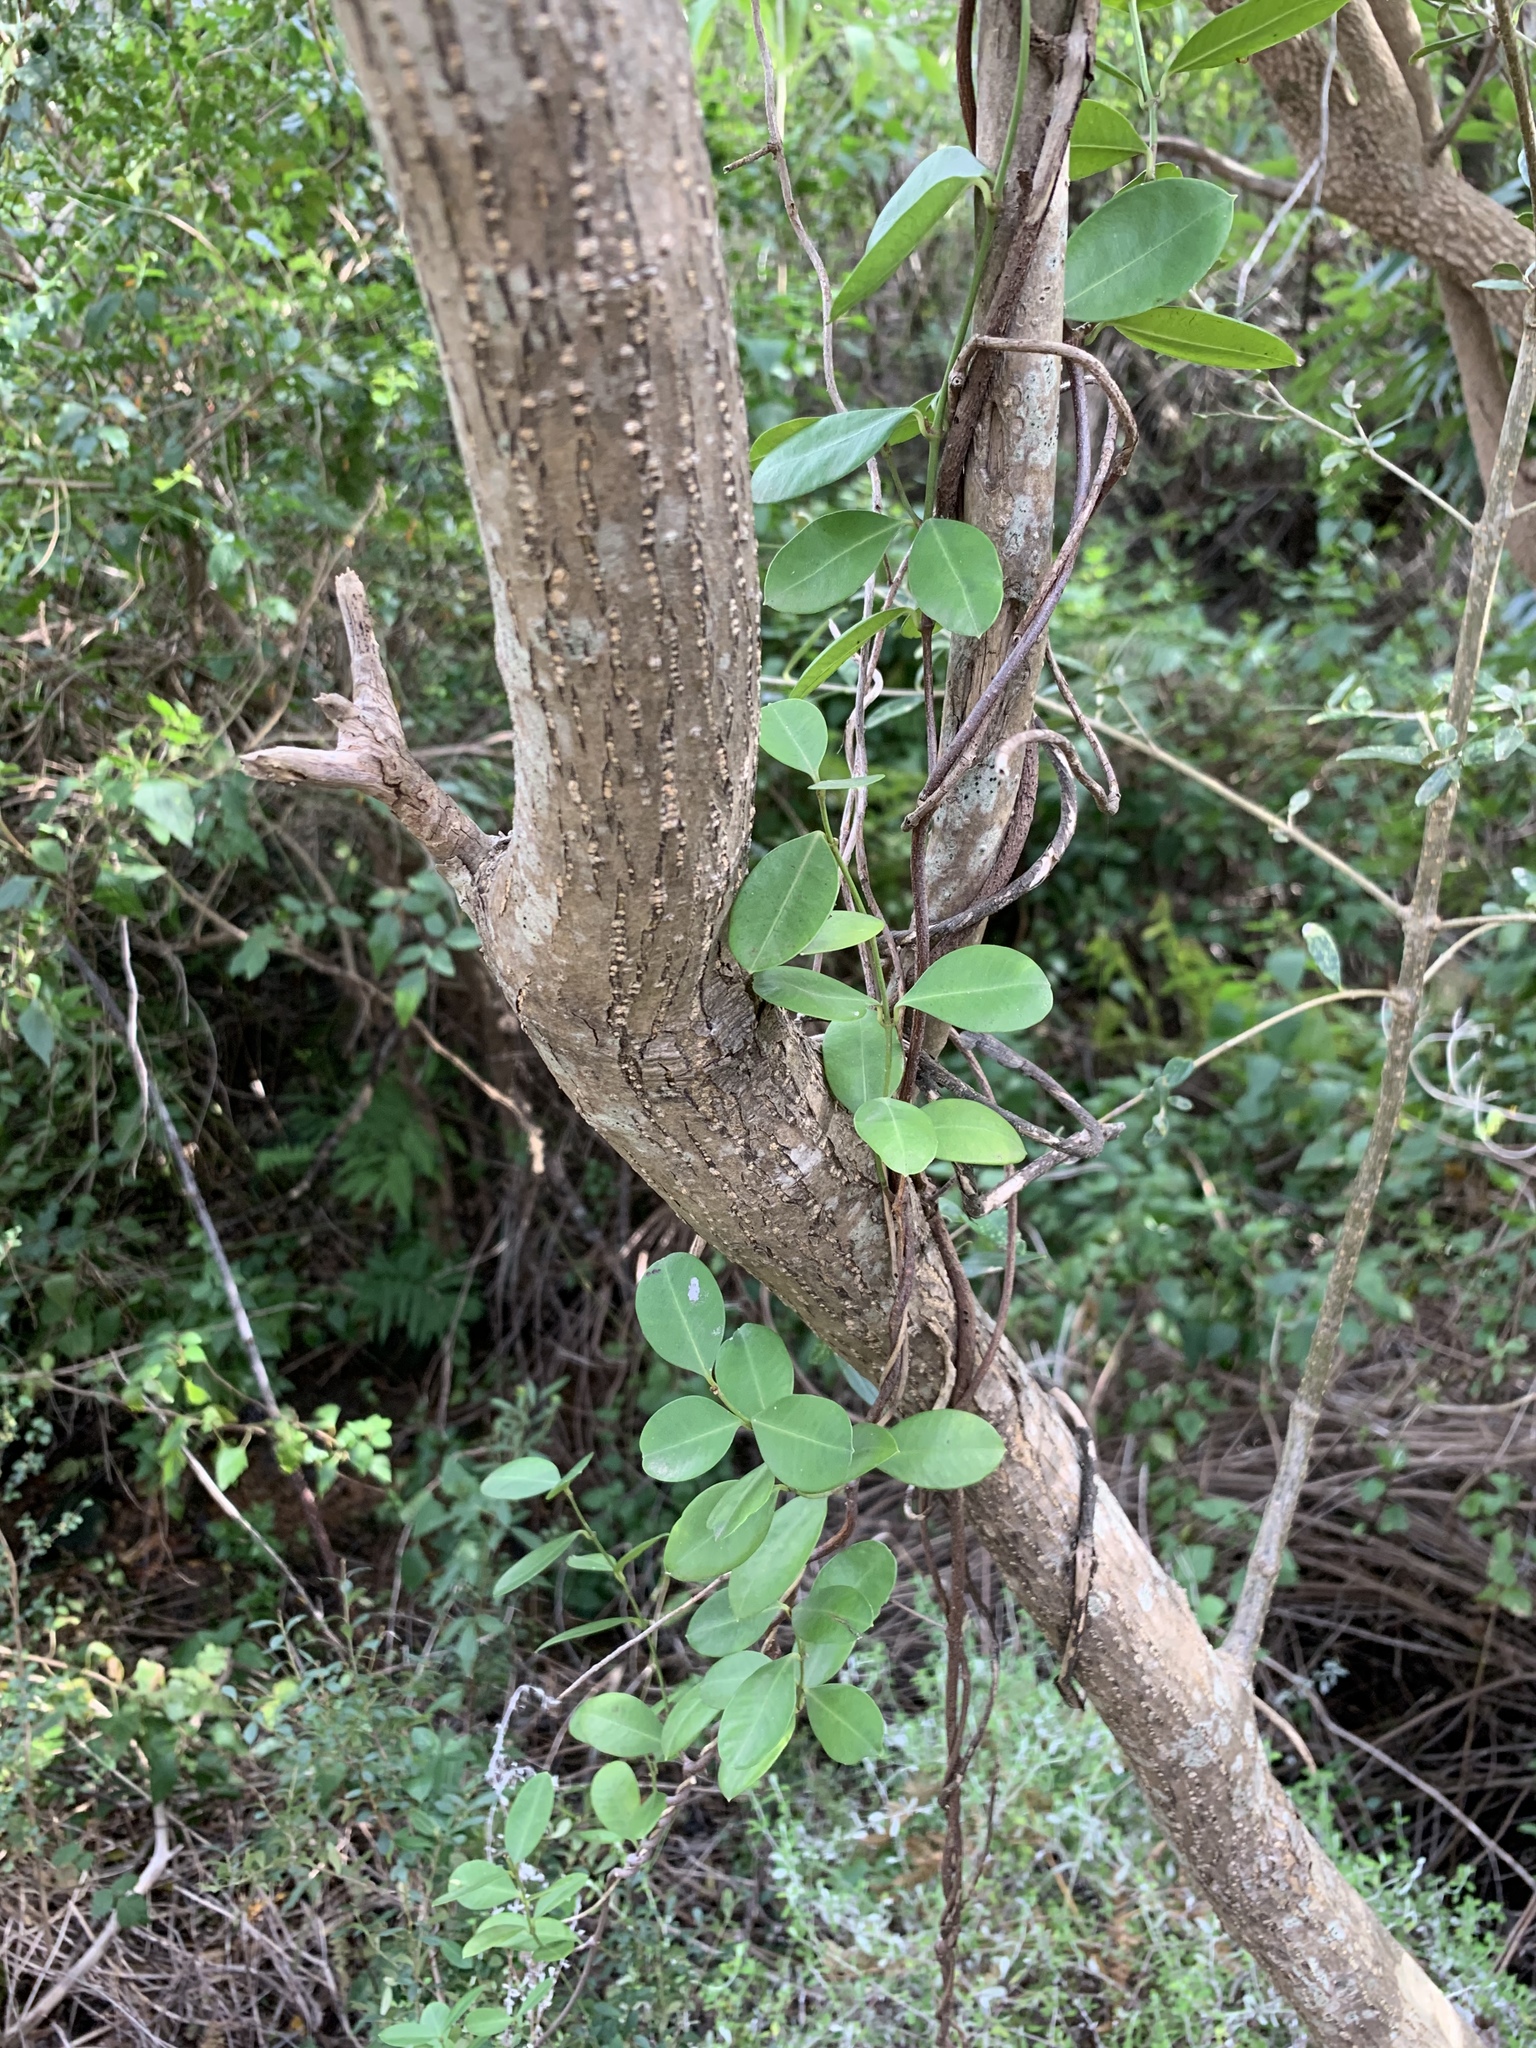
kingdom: Plantae
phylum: Tracheophyta
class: Magnoliopsida
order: Gentianales
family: Apocynaceae
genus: Secamone
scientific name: Secamone alpini
